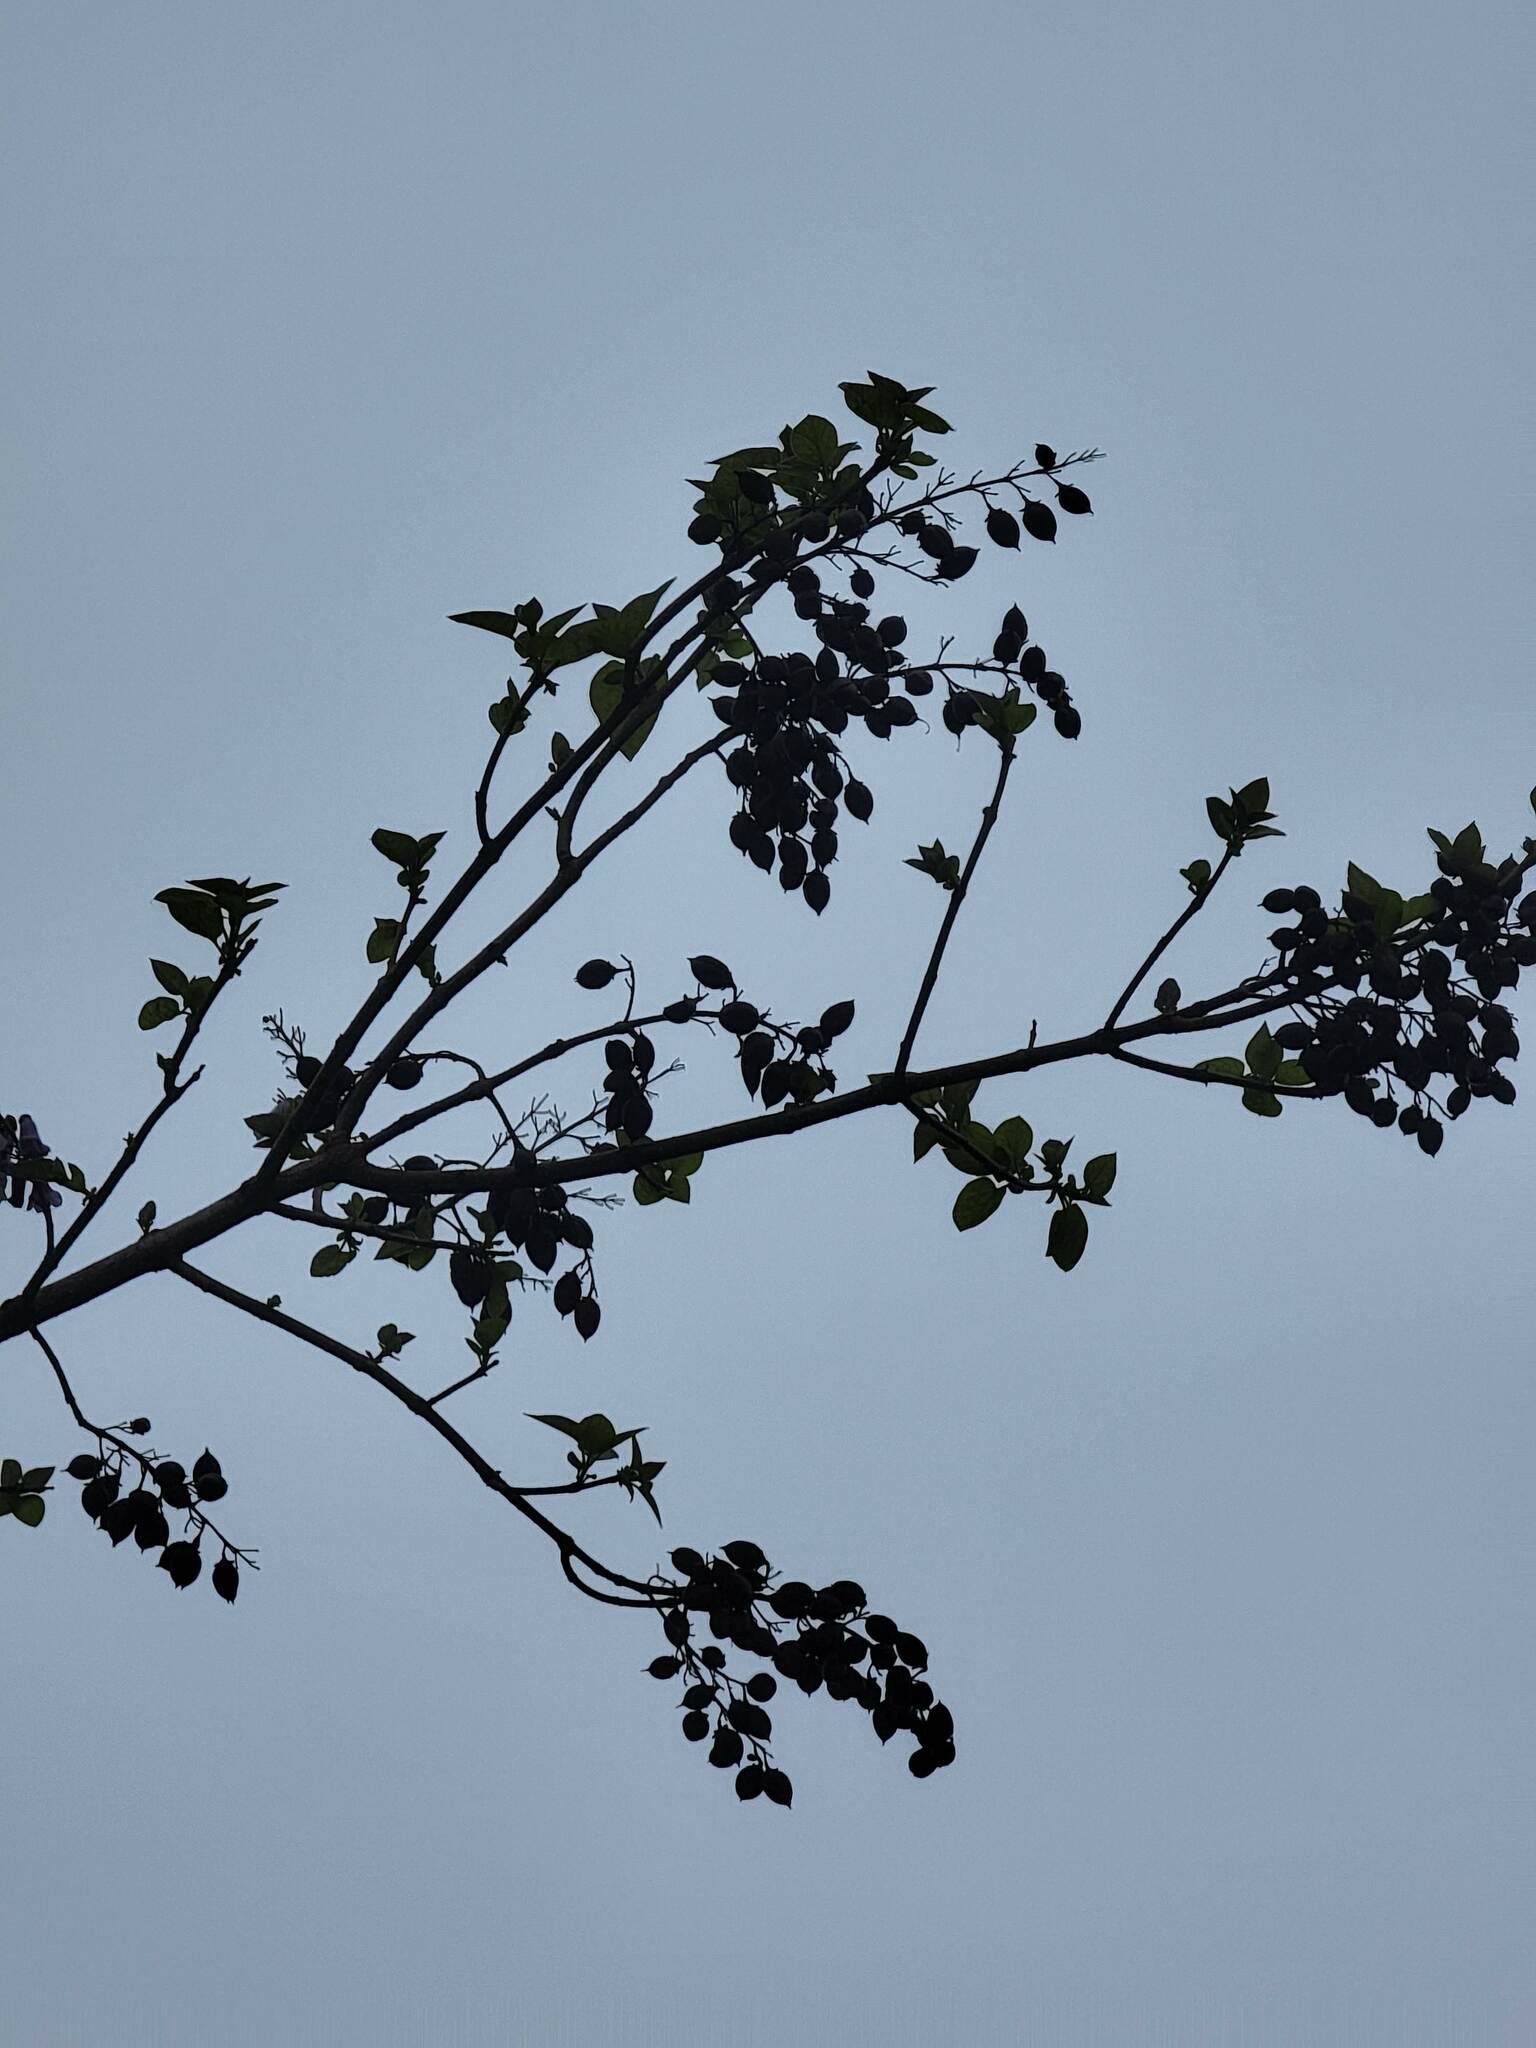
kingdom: Plantae
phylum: Tracheophyta
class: Magnoliopsida
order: Lamiales
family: Paulowniaceae
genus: Paulownia
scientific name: Paulownia tomentosa
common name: Foxglove-tree
